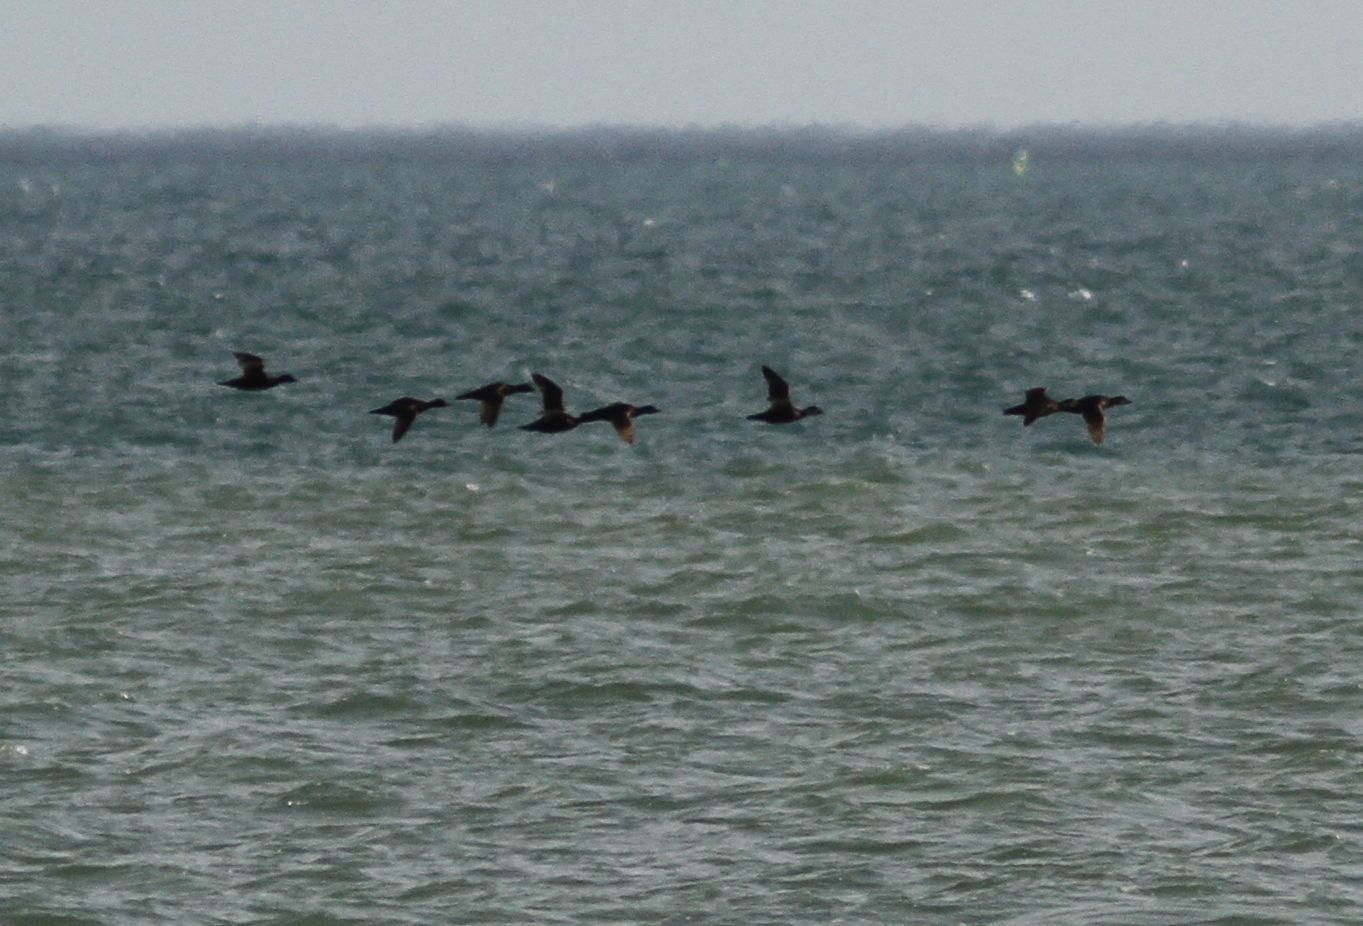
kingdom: Animalia
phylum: Chordata
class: Aves
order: Anseriformes
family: Anatidae
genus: Melanitta
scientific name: Melanitta nigra
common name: Common scoter
